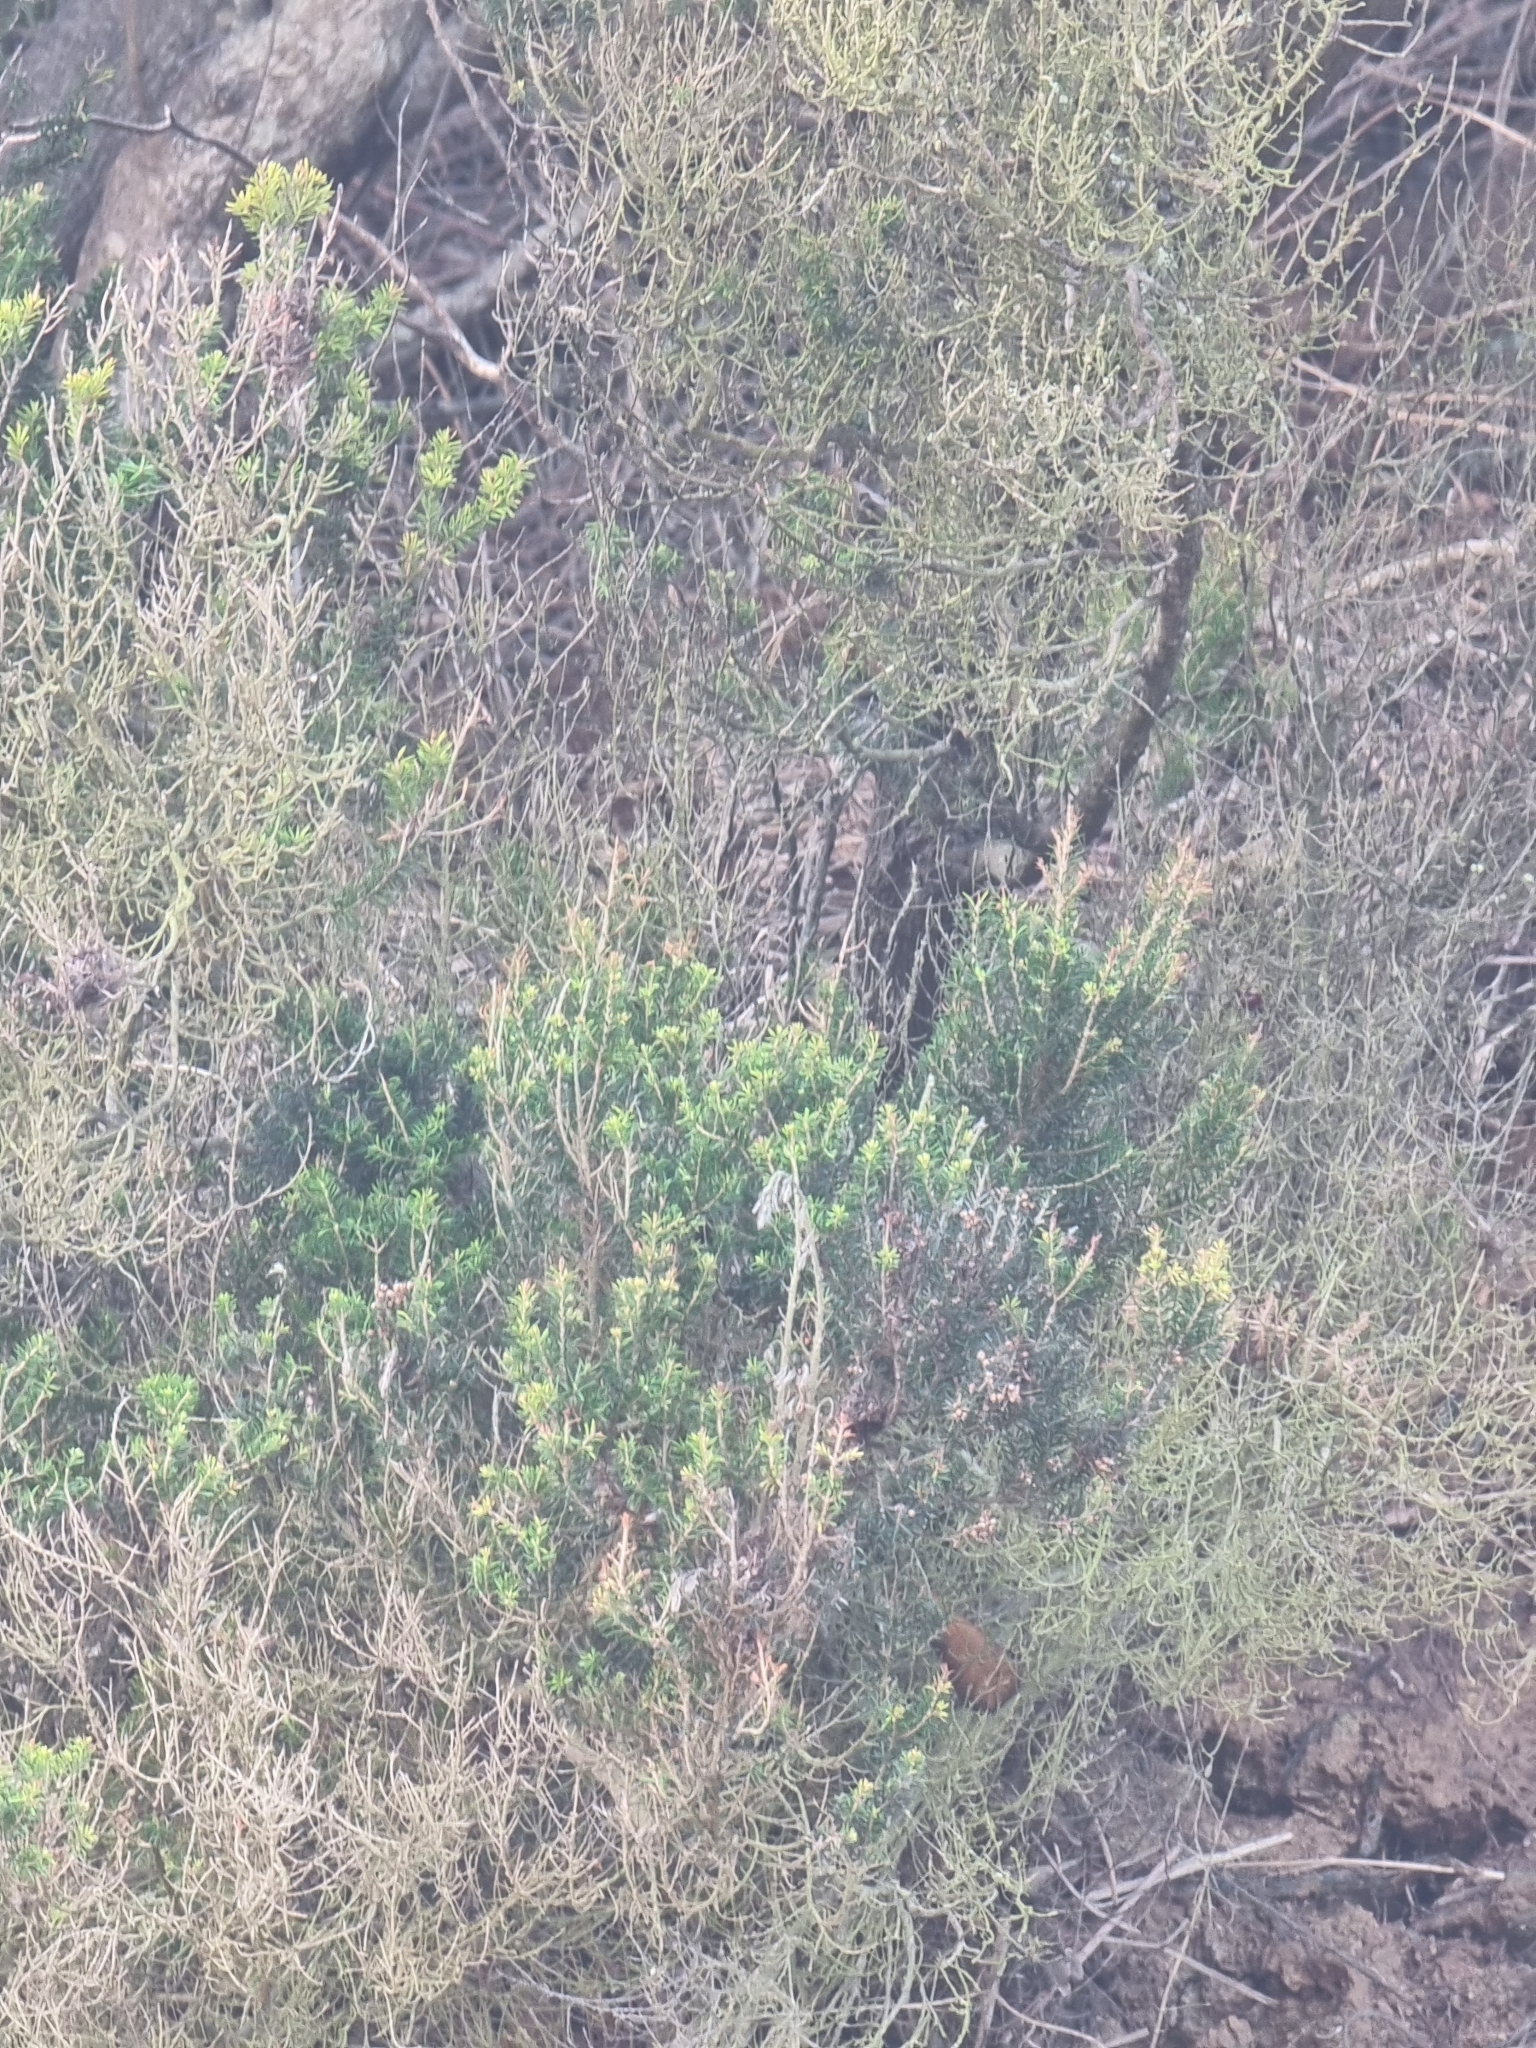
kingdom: Plantae
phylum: Tracheophyta
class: Magnoliopsida
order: Ericales
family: Ericaceae
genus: Erica
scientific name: Erica platycodon
